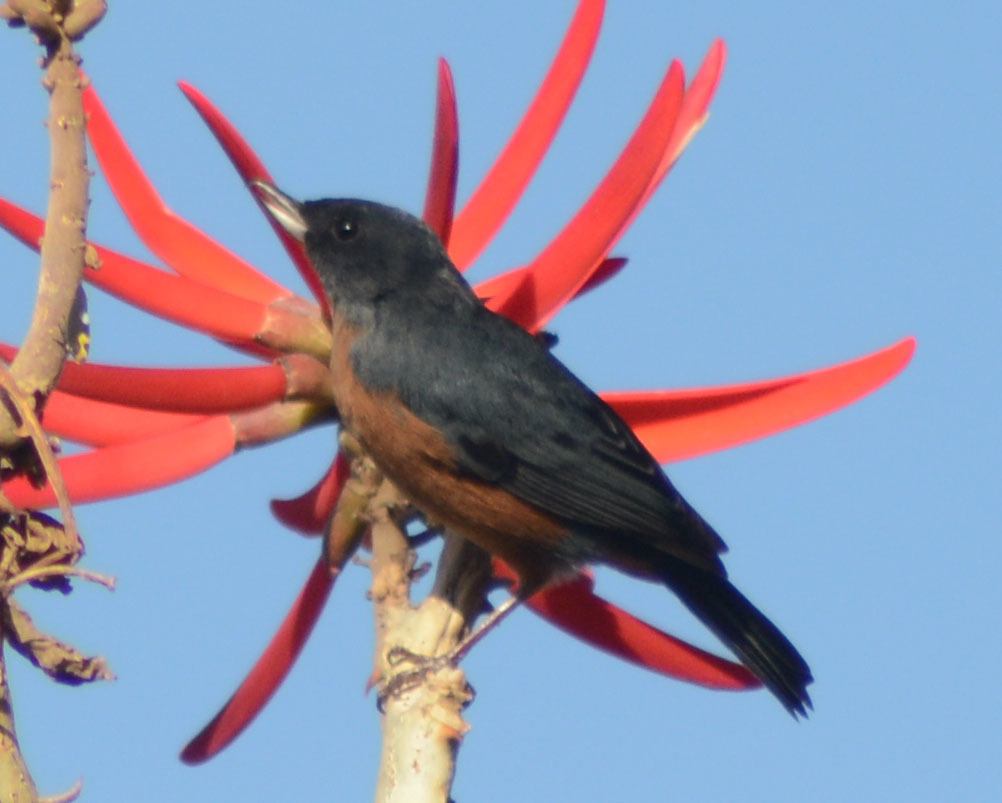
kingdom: Animalia
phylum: Chordata
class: Aves
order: Passeriformes
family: Thraupidae
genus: Diglossa
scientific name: Diglossa baritula
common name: Cinnamon-bellied flowerpiercer
